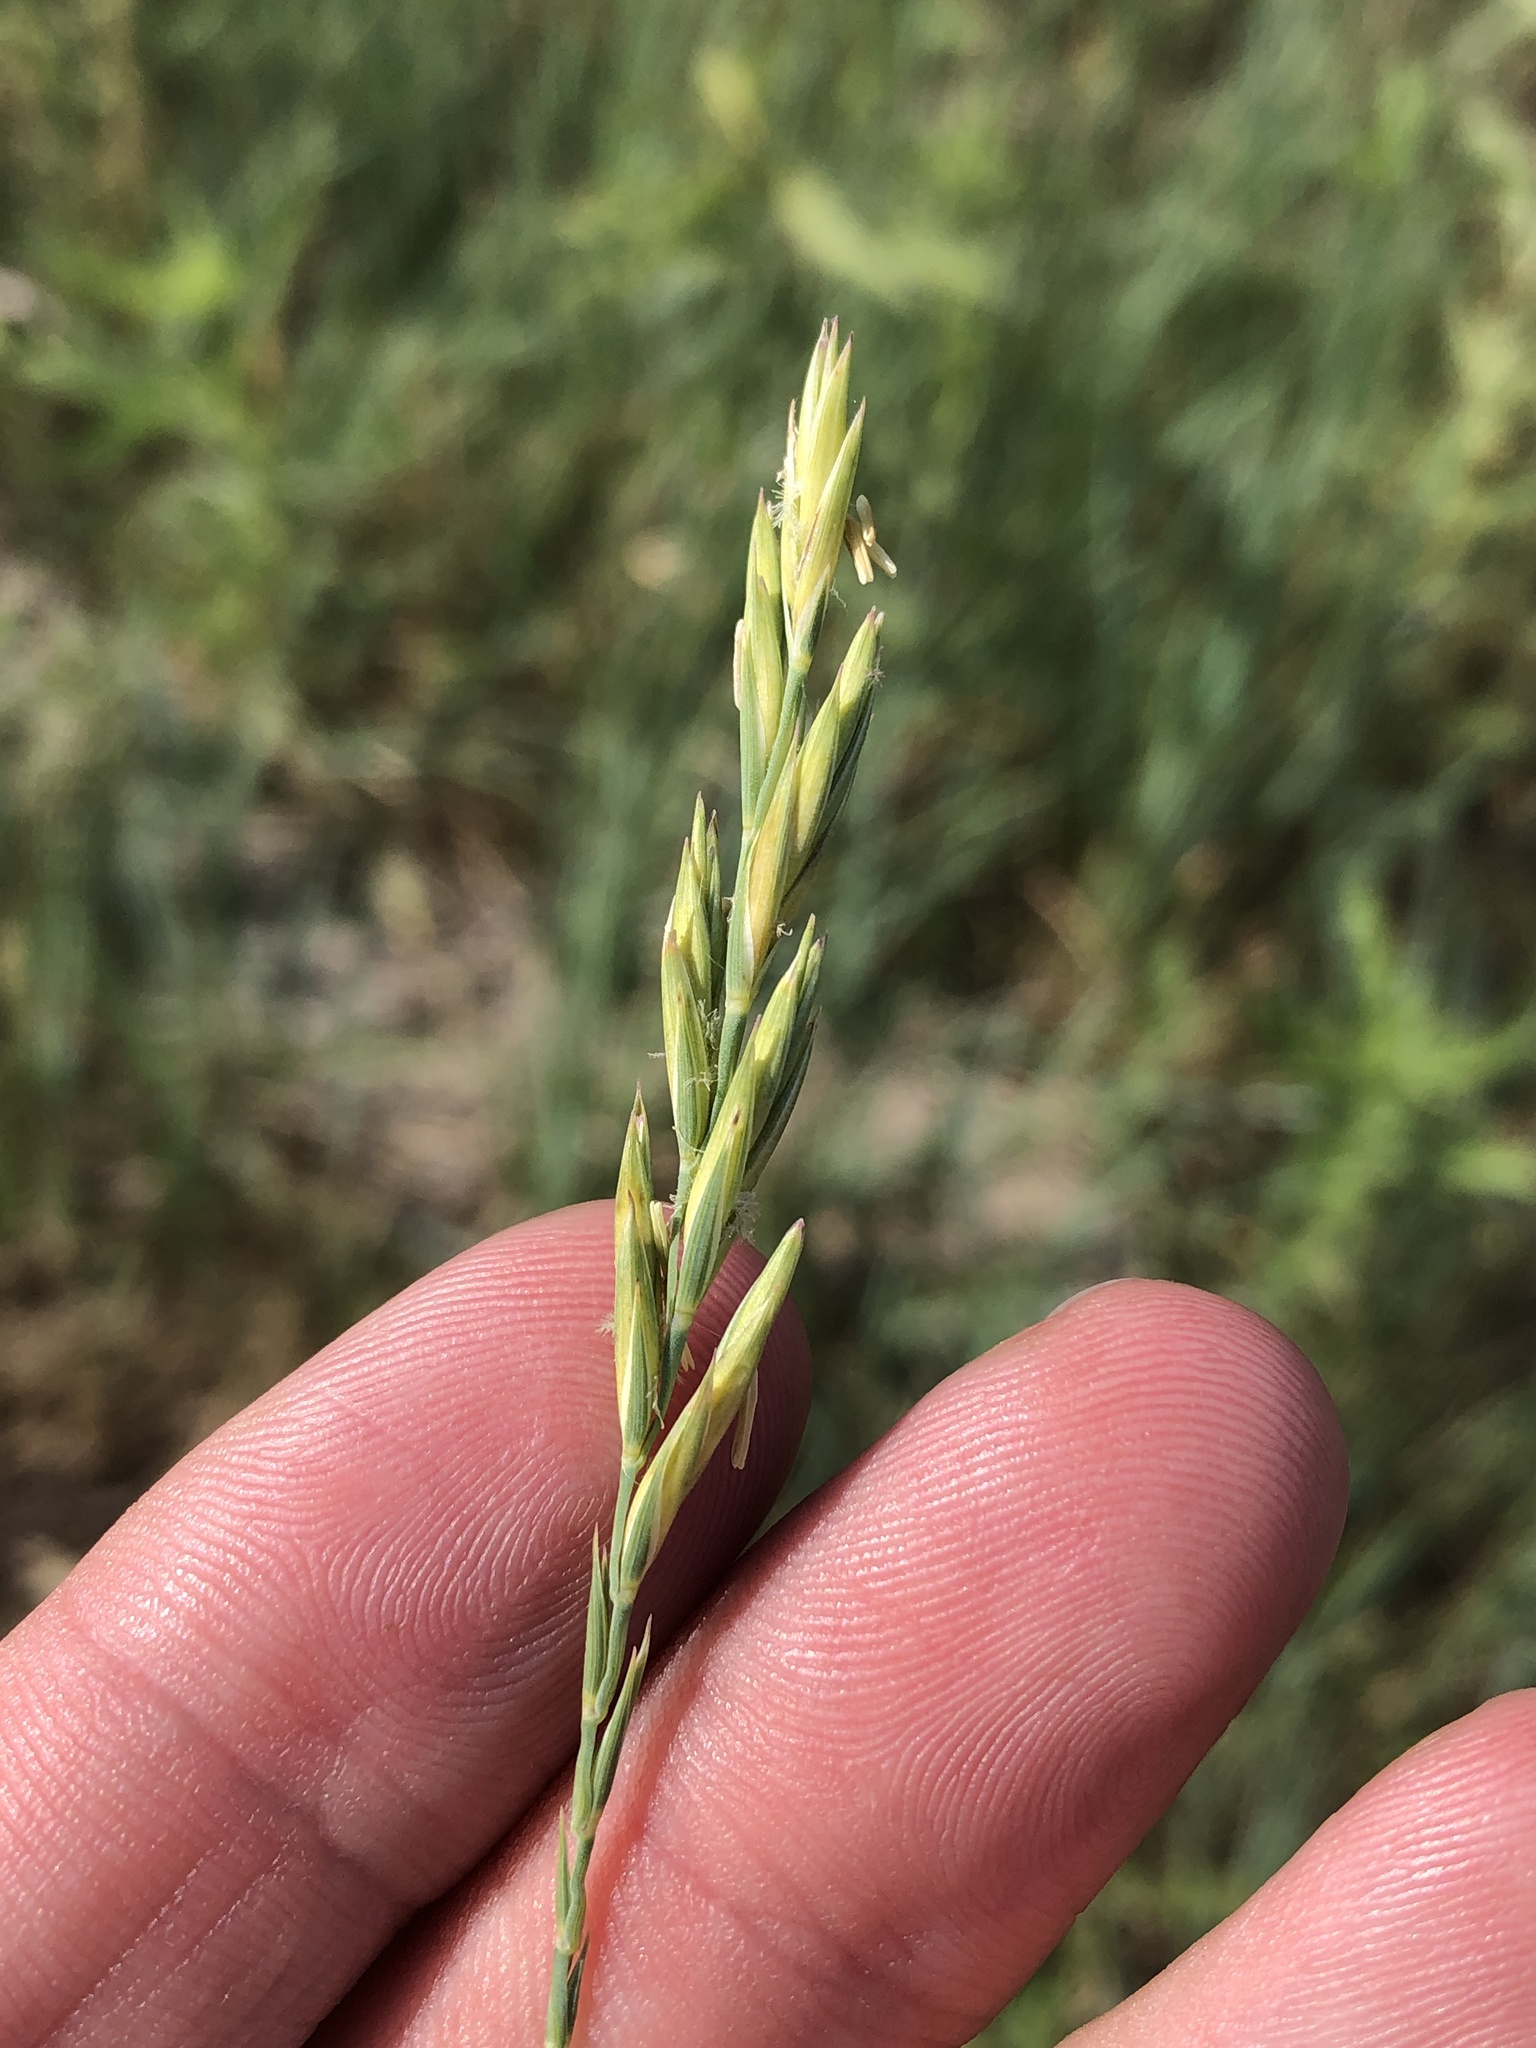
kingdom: Plantae
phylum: Tracheophyta
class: Liliopsida
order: Poales
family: Poaceae
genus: Elymus
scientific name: Elymus smithii
